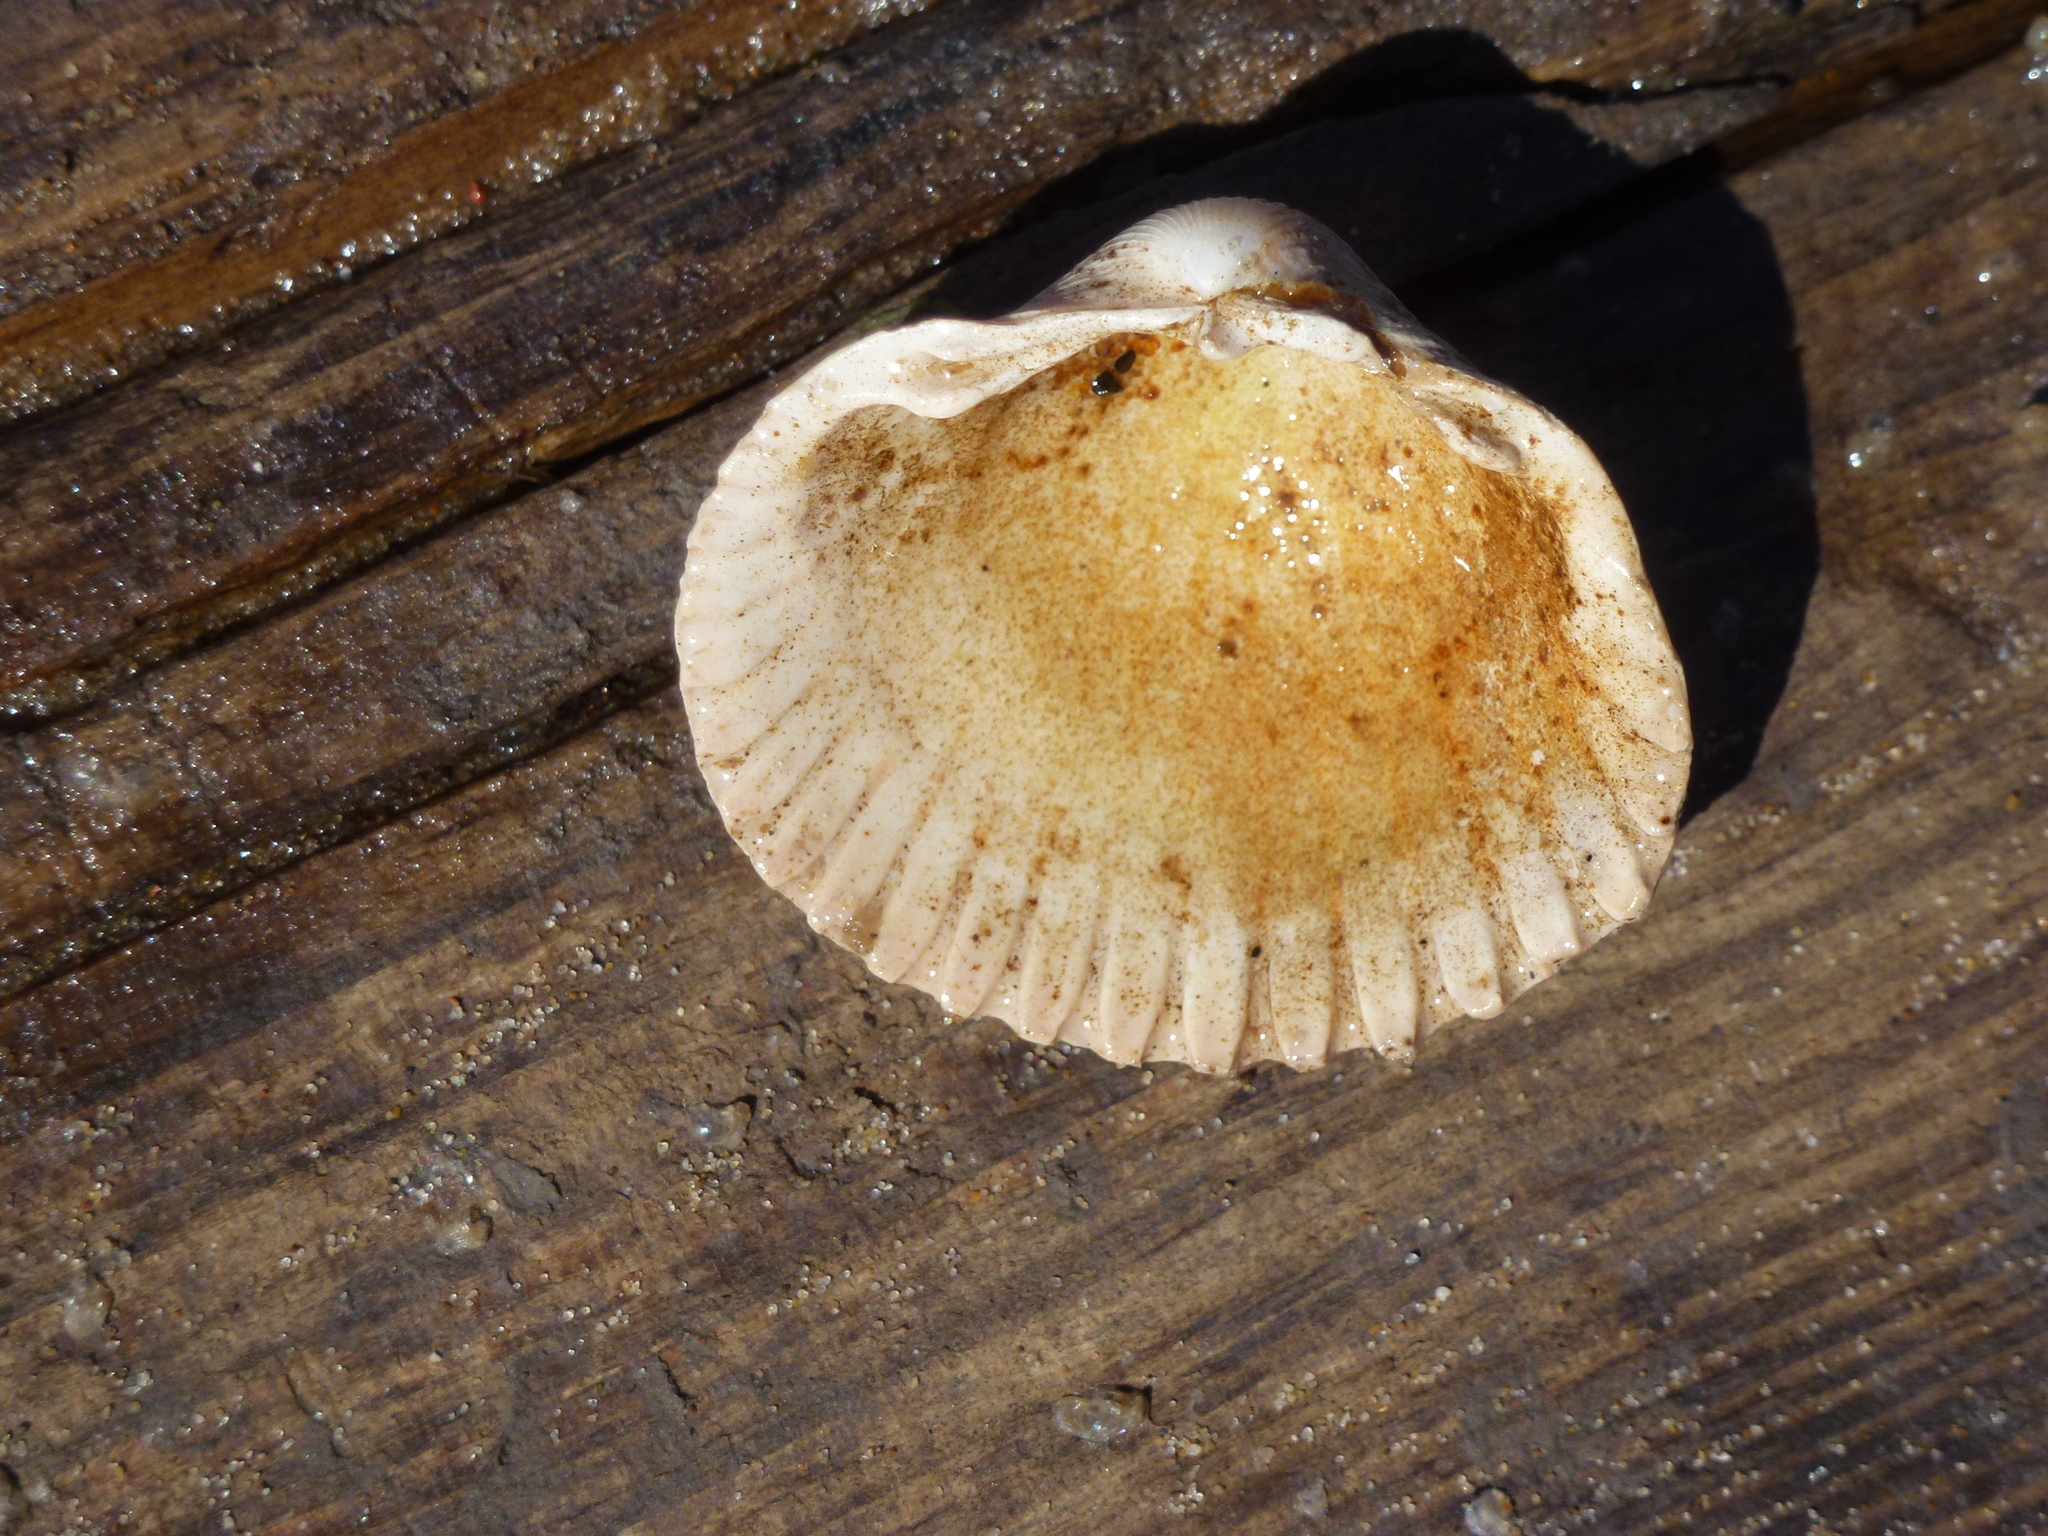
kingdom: Animalia
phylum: Mollusca
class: Bivalvia
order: Cardiida
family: Cardiidae
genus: Cerastoderma
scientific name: Cerastoderma edule
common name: Common cockle
